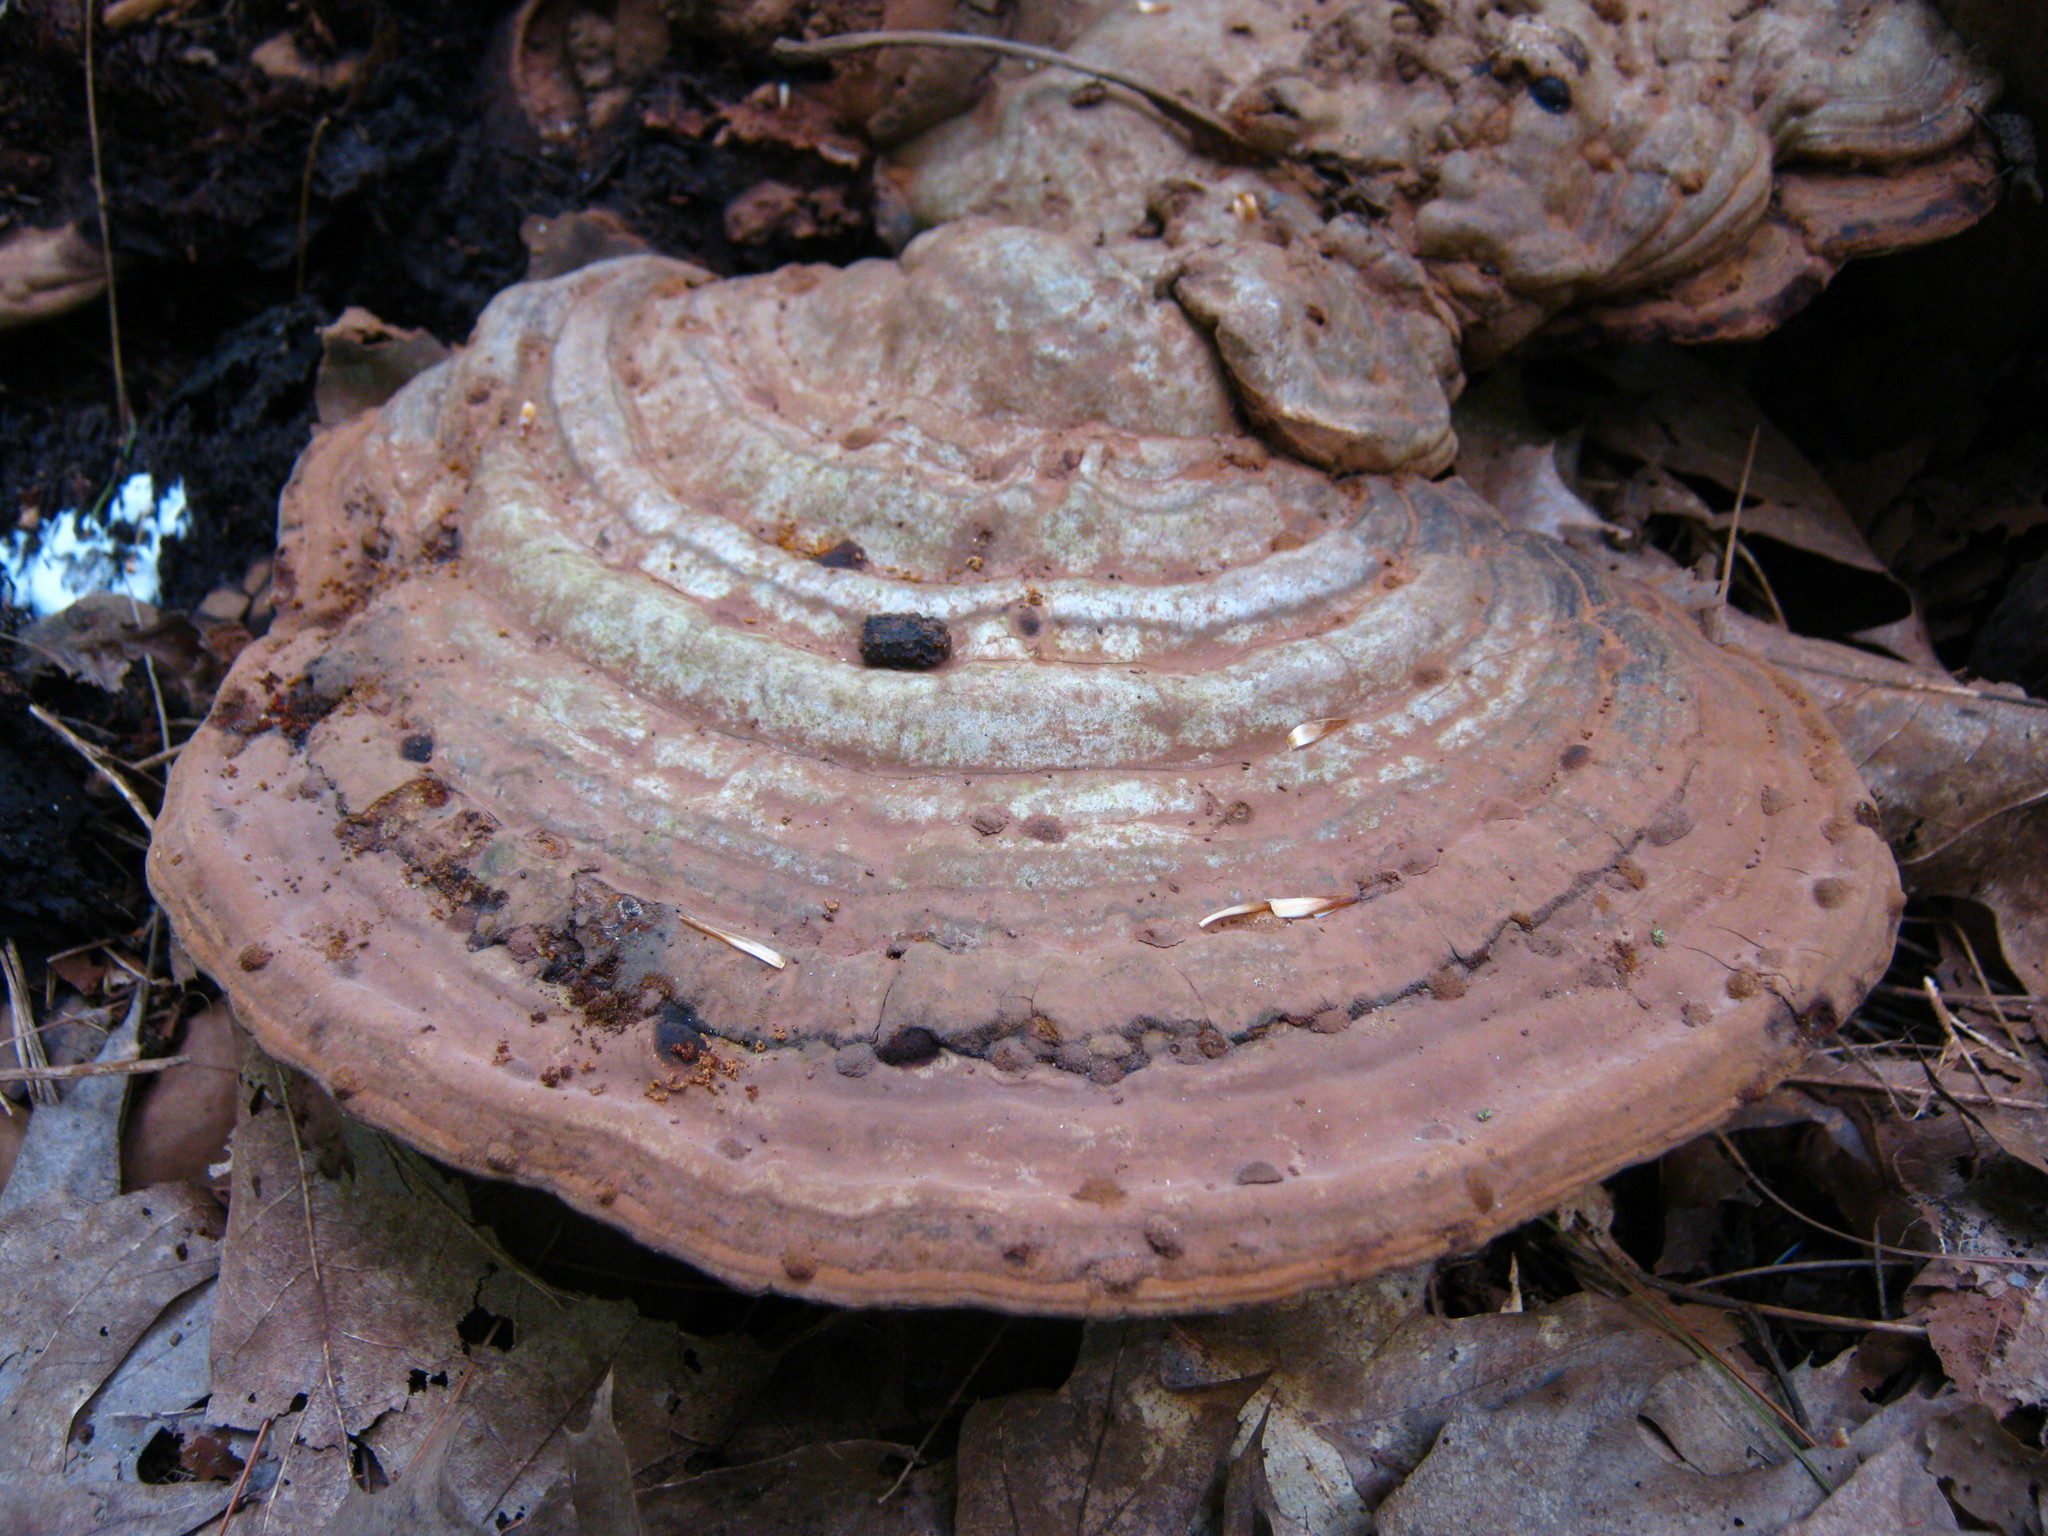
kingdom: Fungi
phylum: Basidiomycota
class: Agaricomycetes
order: Polyporales
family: Polyporaceae
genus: Ganoderma
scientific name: Ganoderma applanatum
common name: Artist's bracket
